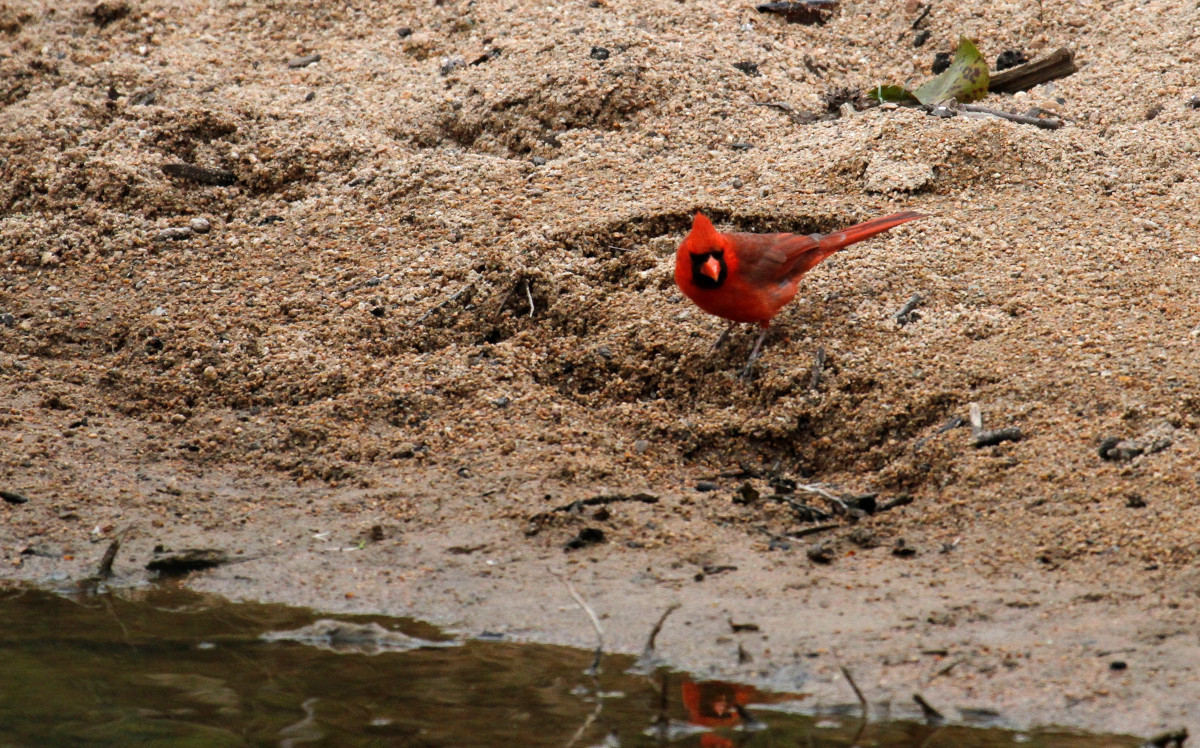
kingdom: Animalia
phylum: Chordata
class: Aves
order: Passeriformes
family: Cardinalidae
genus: Cardinalis
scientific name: Cardinalis cardinalis
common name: Northern cardinal
